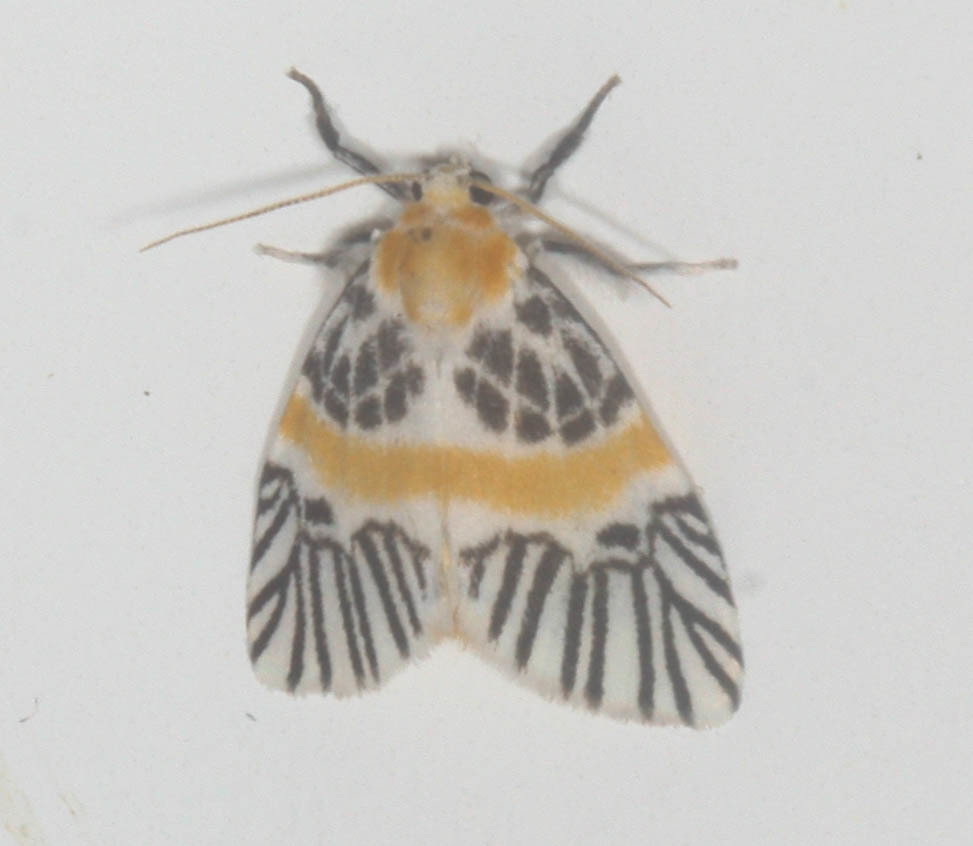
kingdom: Animalia
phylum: Arthropoda
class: Insecta
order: Lepidoptera
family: Erebidae
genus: Indiania
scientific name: Indiania eccentropis
